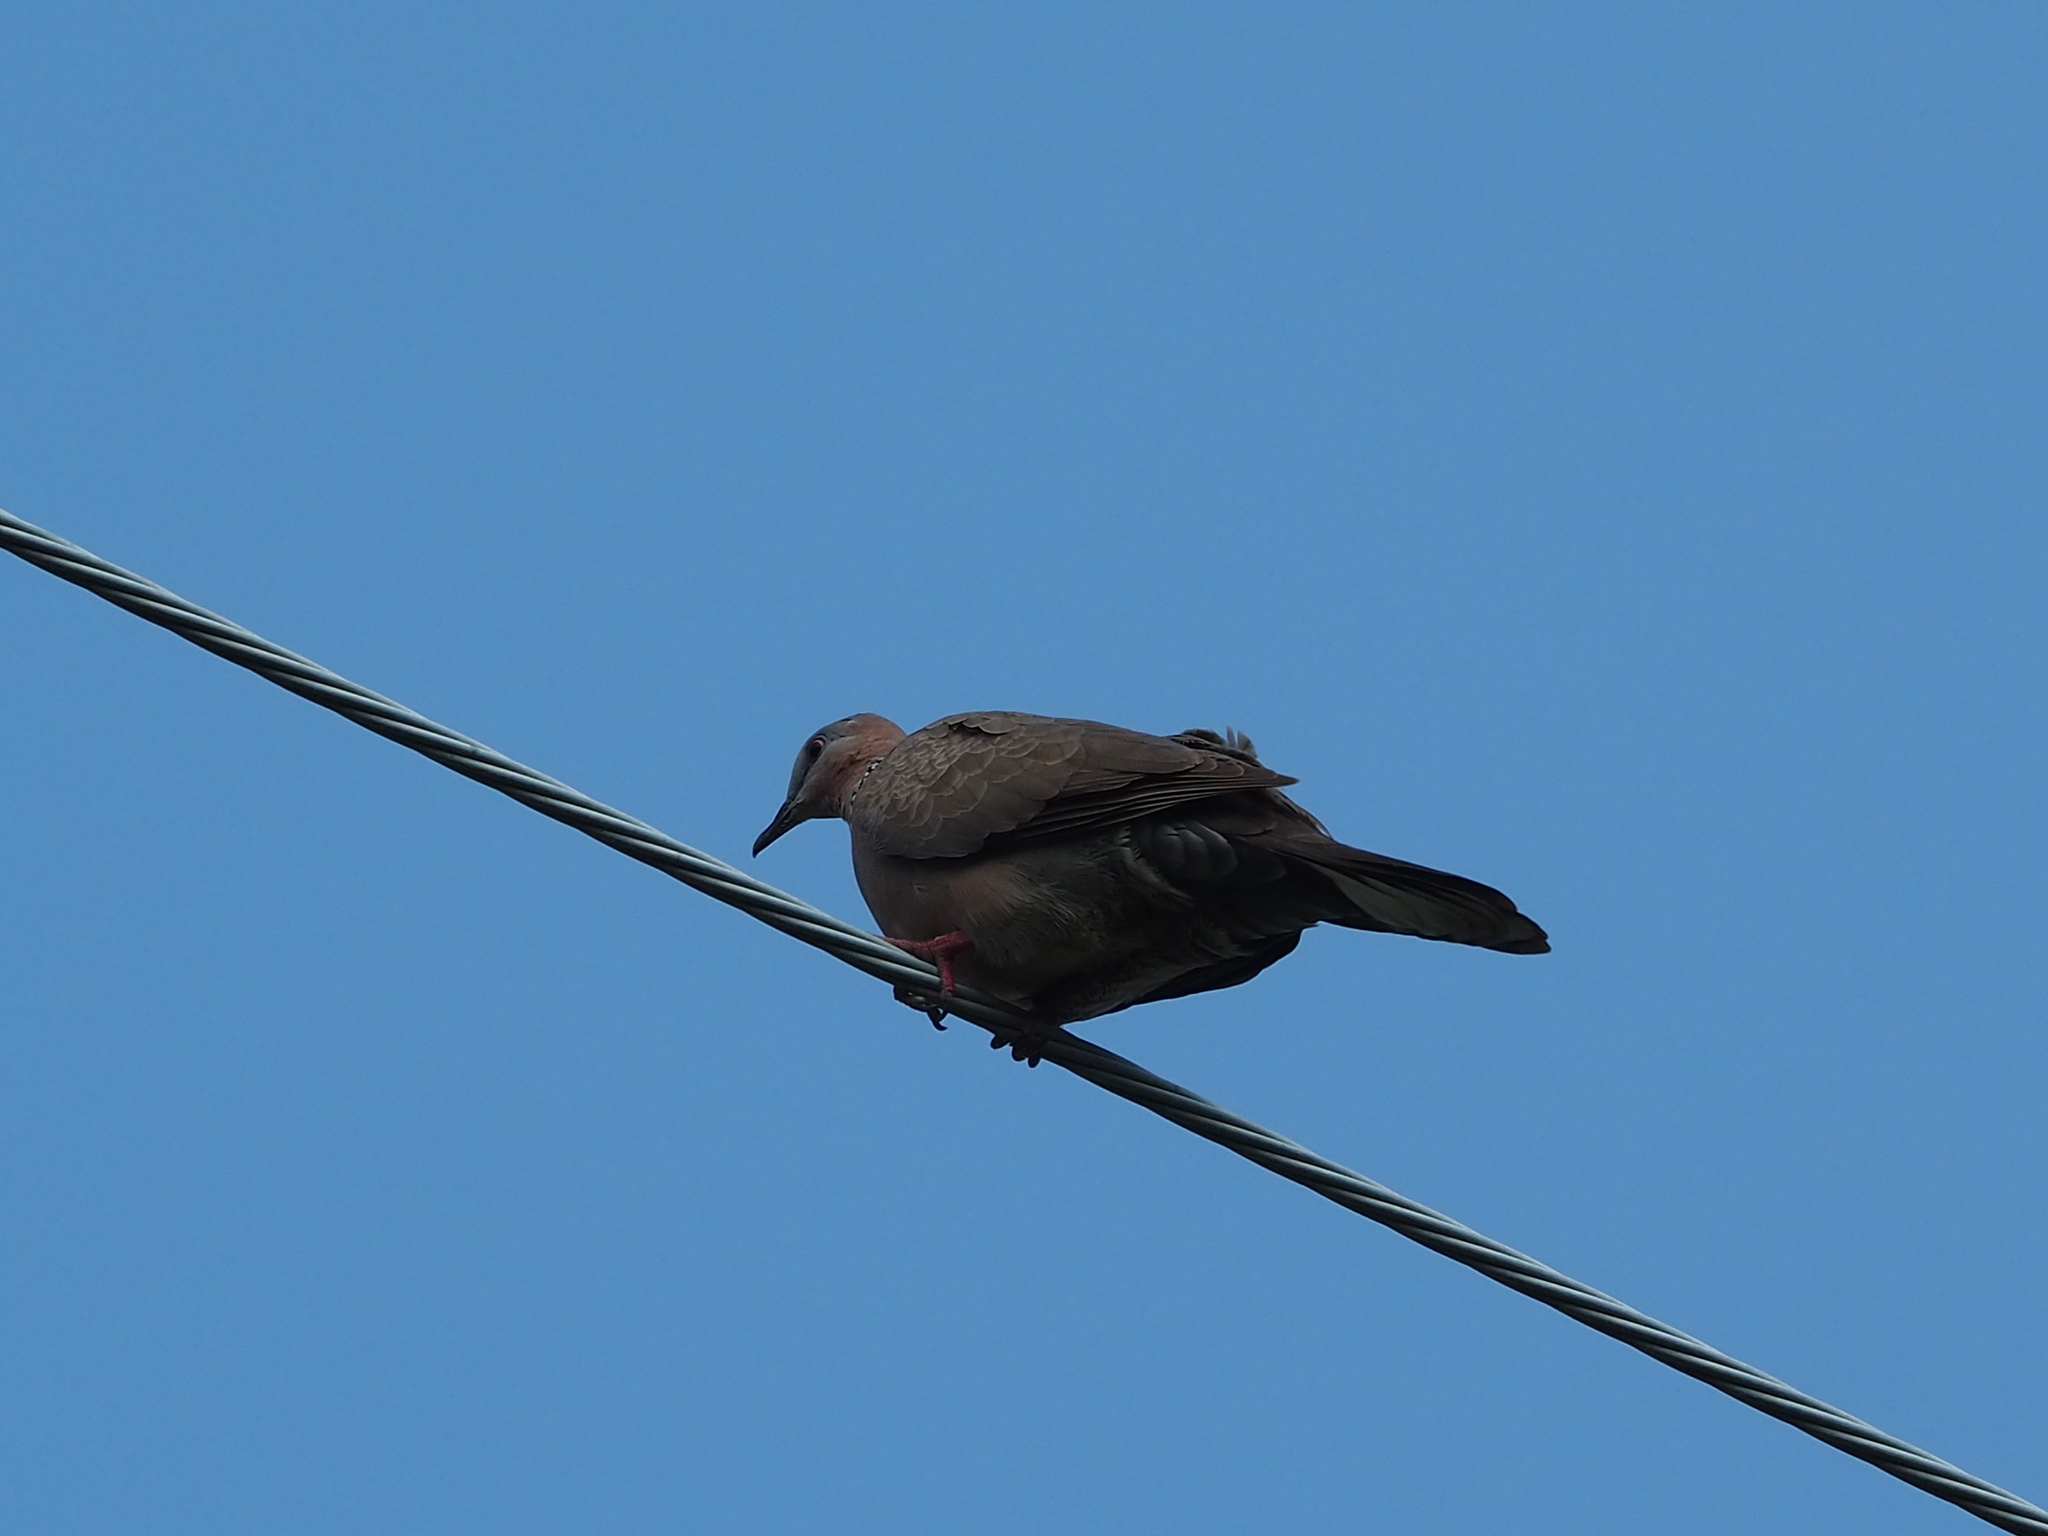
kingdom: Animalia
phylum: Chordata
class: Aves
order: Columbiformes
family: Columbidae
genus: Spilopelia
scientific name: Spilopelia chinensis
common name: Spotted dove
